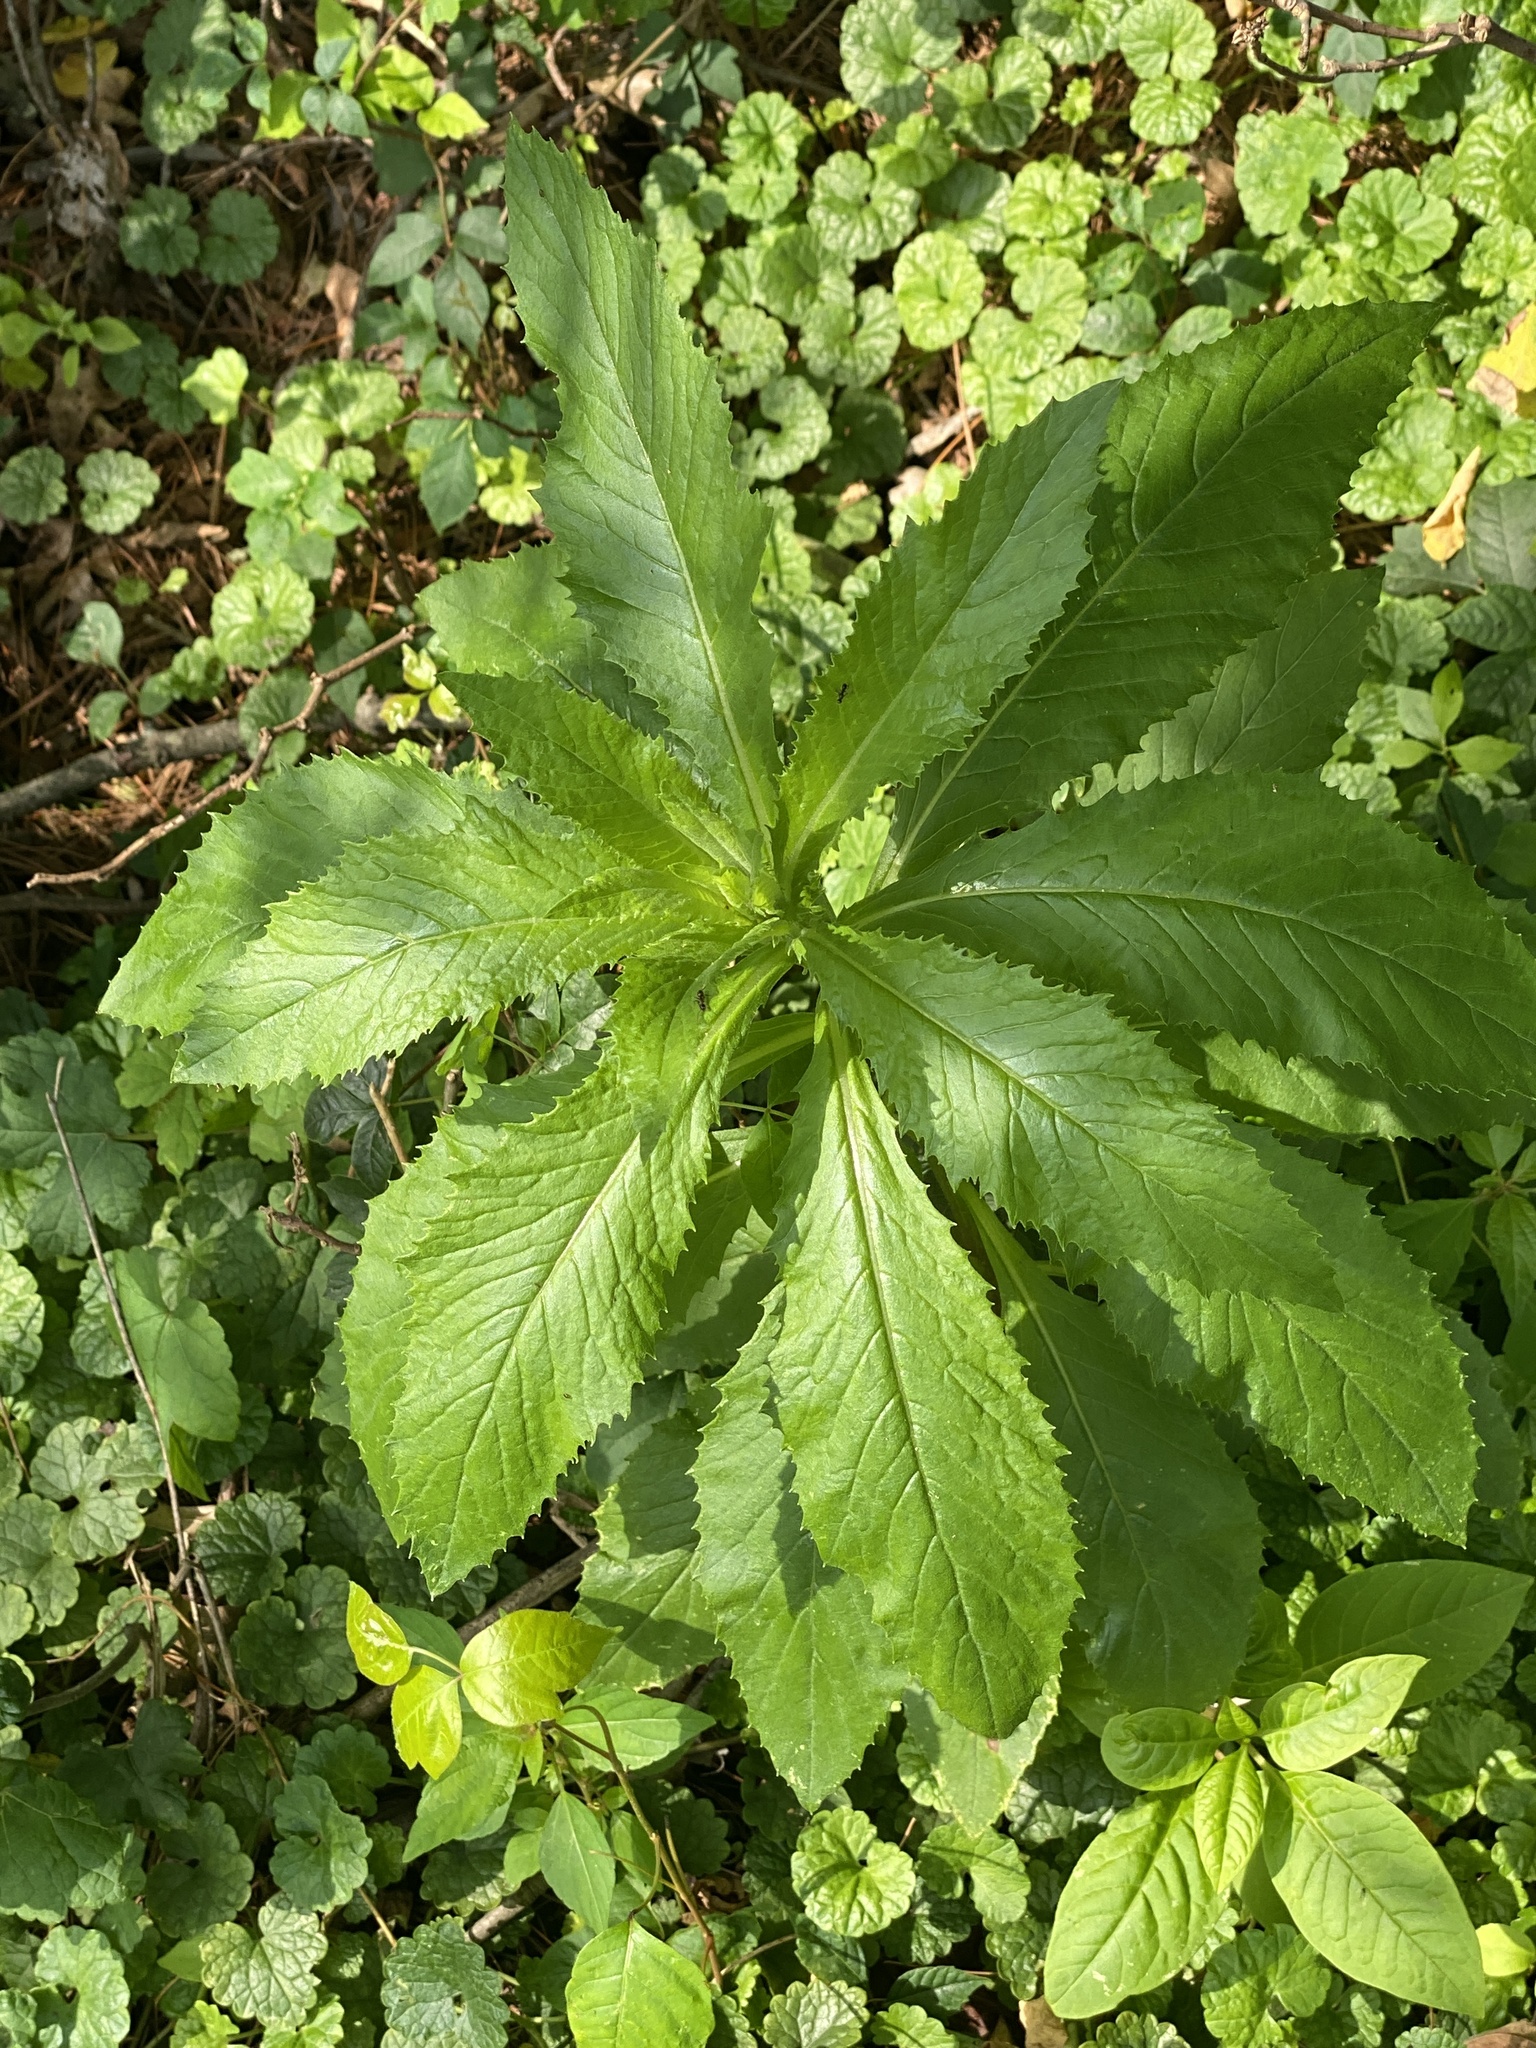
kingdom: Plantae
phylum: Tracheophyta
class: Magnoliopsida
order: Asterales
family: Asteraceae
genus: Erechtites
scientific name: Erechtites hieraciifolius
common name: American burnweed
